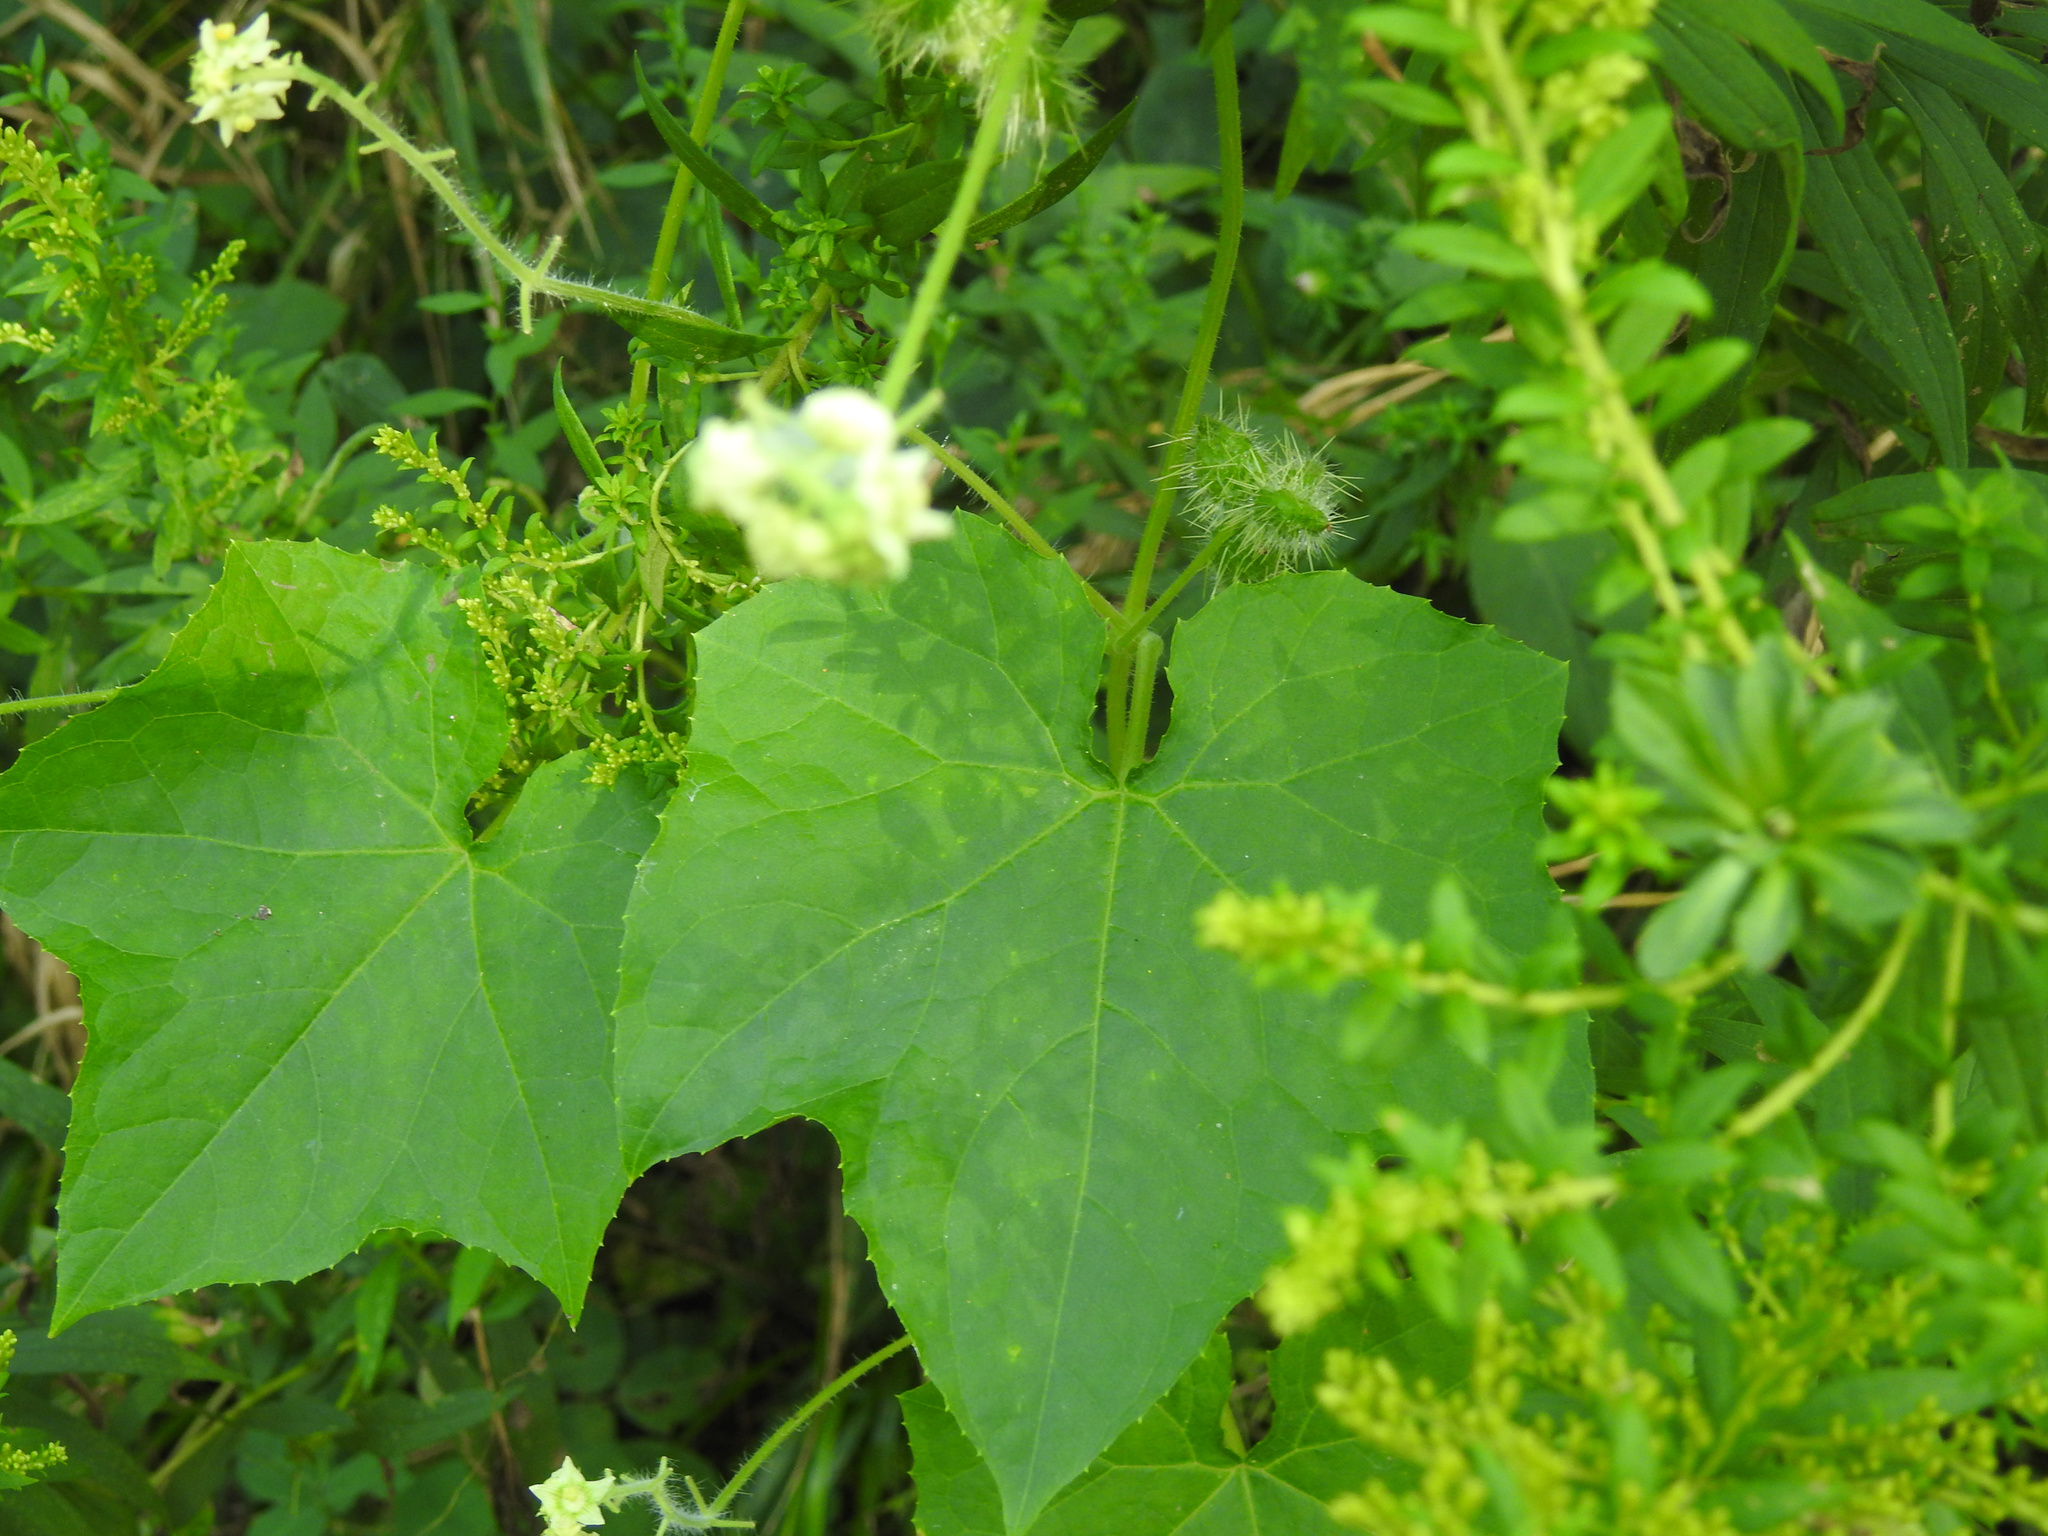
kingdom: Plantae
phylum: Tracheophyta
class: Magnoliopsida
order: Cucurbitales
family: Cucurbitaceae
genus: Sicyos
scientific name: Sicyos angulatus
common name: Angled burr cucumber
